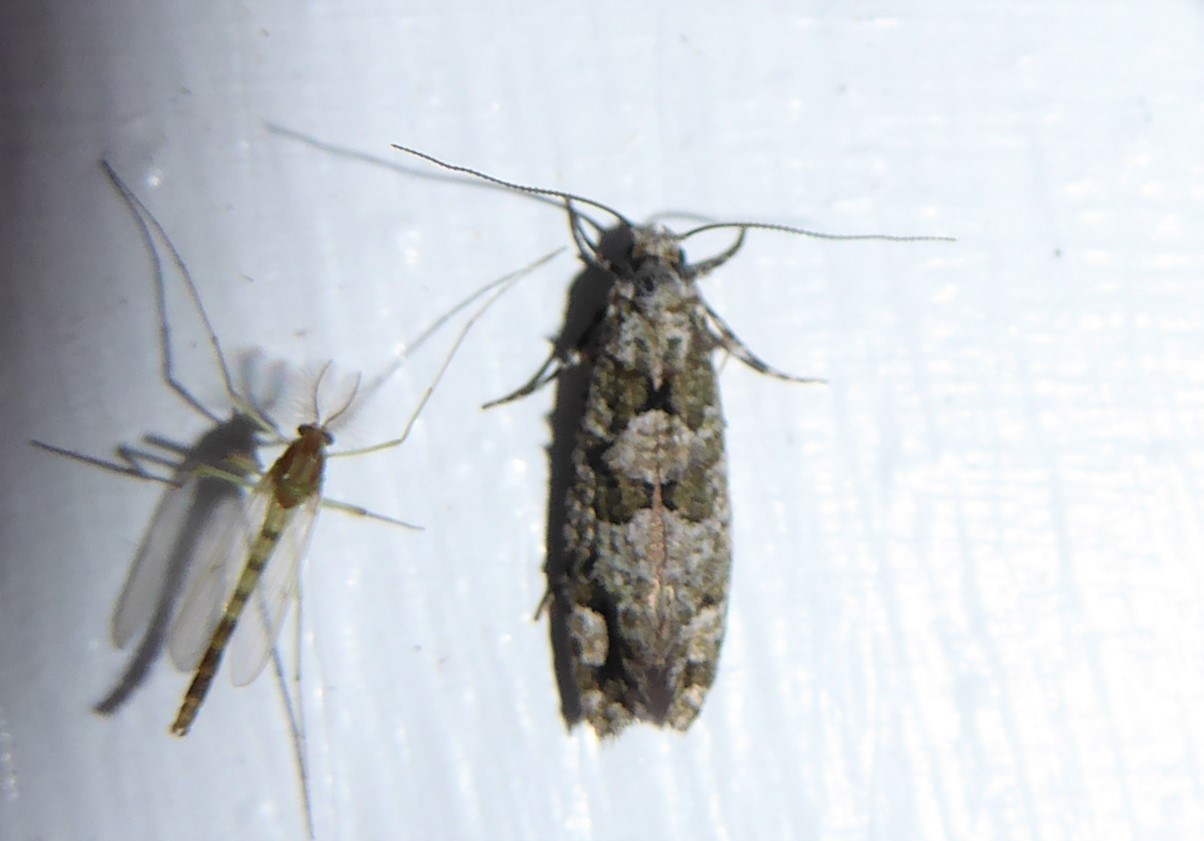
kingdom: Animalia
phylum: Arthropoda
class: Insecta
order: Lepidoptera
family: Tineidae
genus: Lysiphragma
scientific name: Lysiphragma howesii
